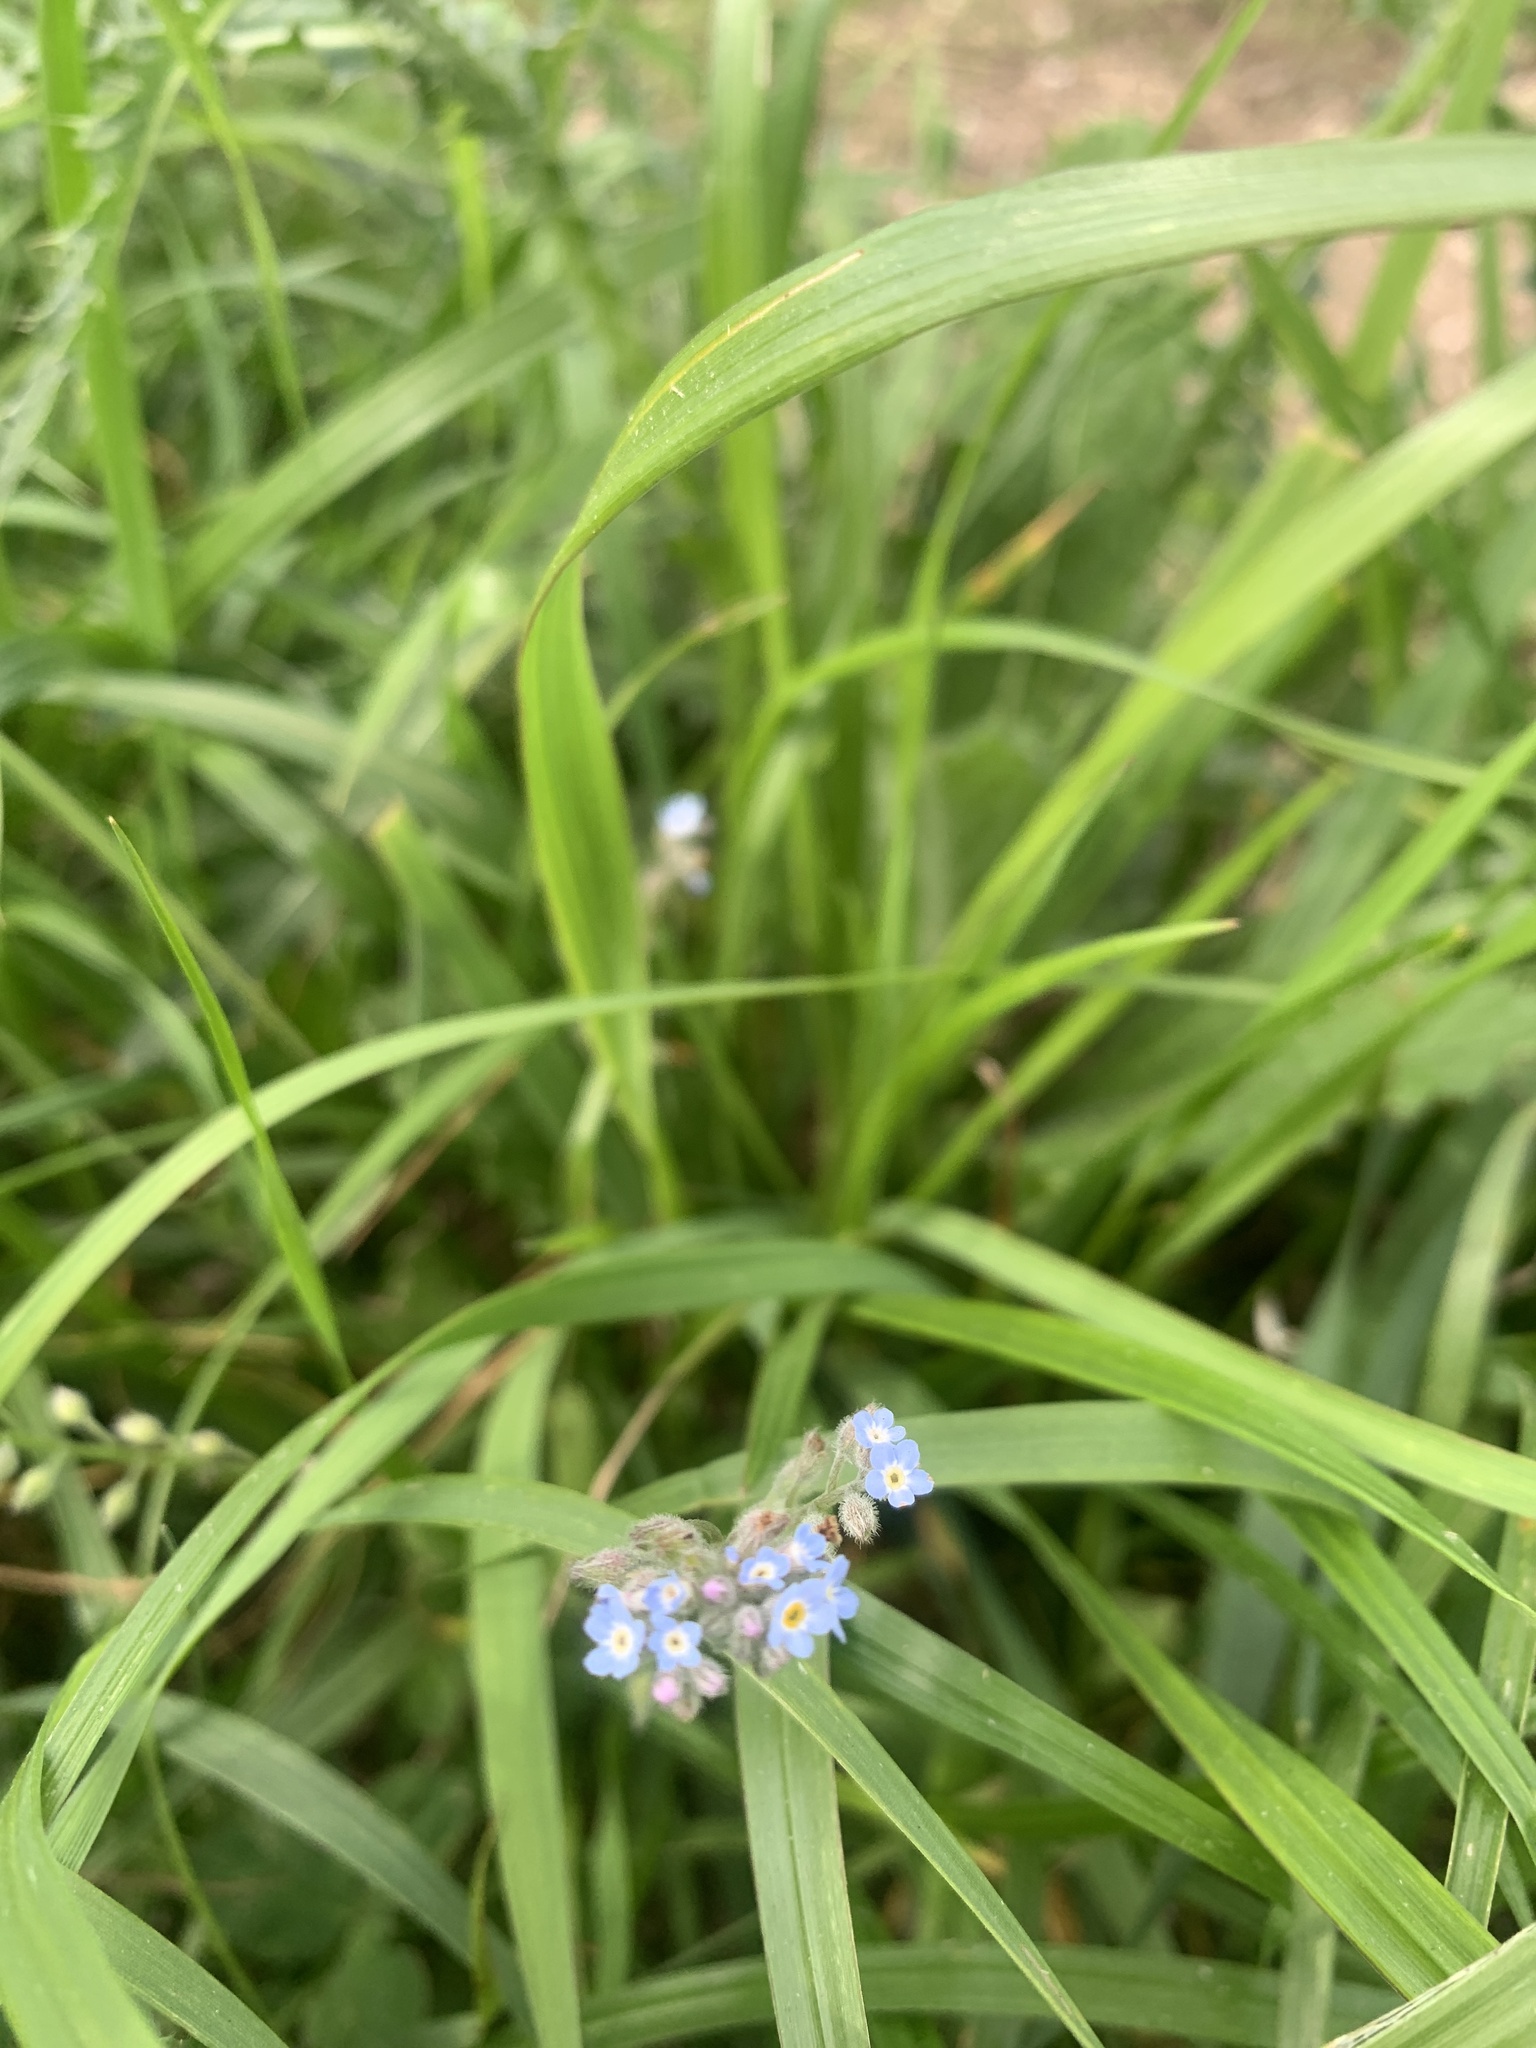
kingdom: Plantae
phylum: Tracheophyta
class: Magnoliopsida
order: Boraginales
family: Boraginaceae
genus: Myosotis
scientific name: Myosotis arvensis
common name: Field forget-me-not
